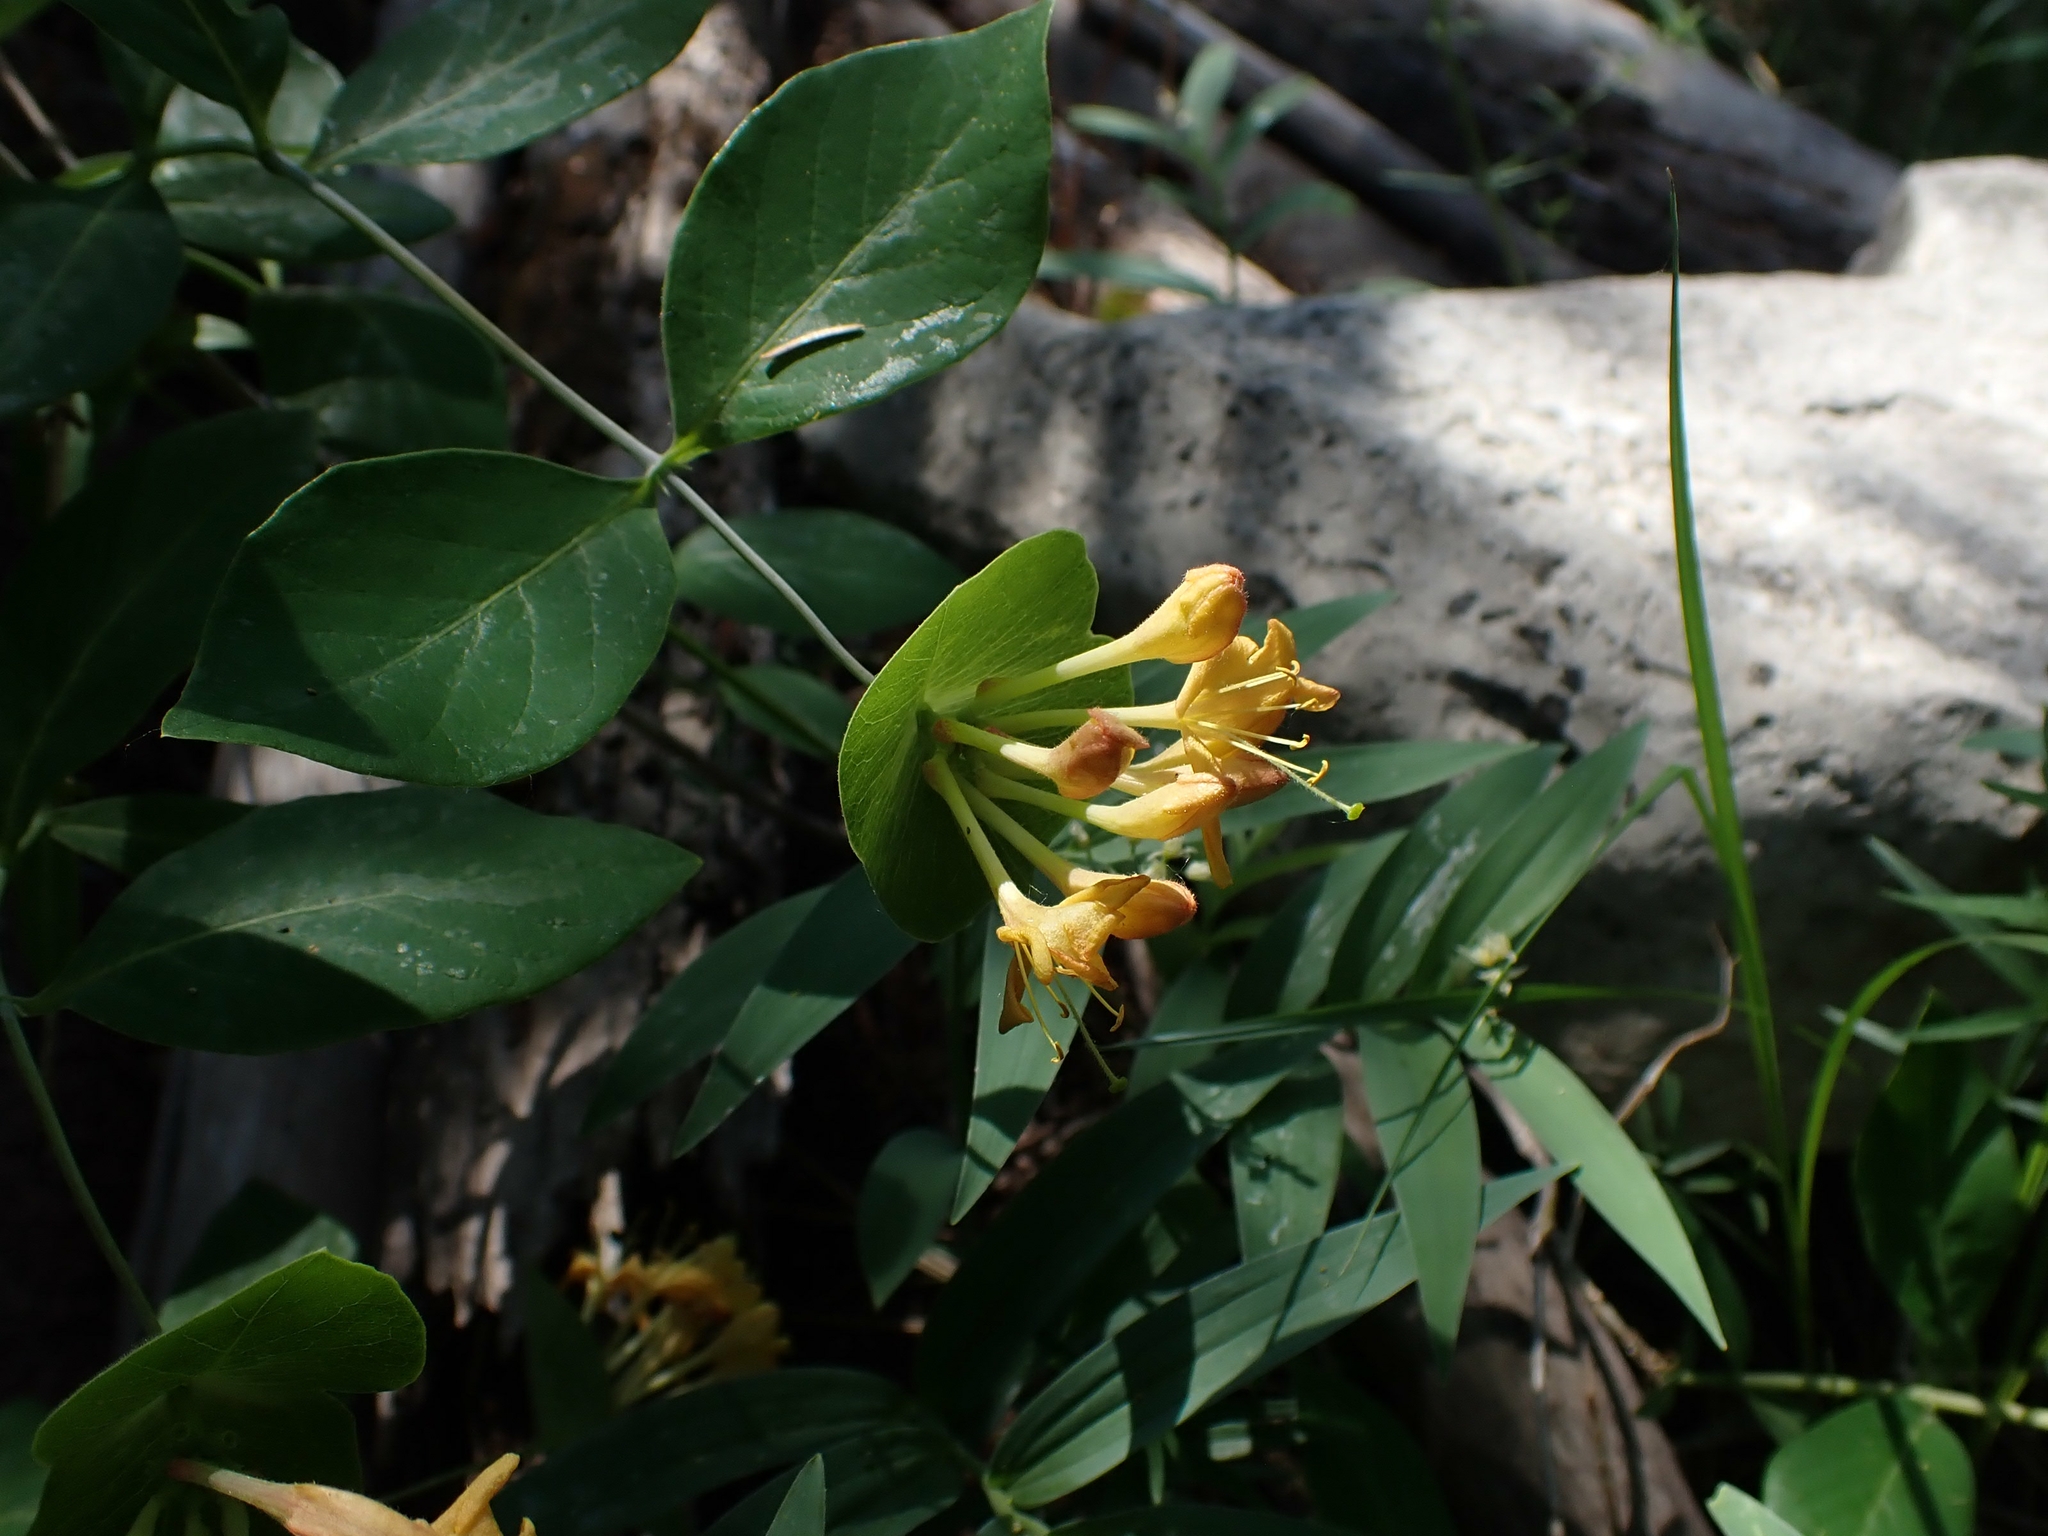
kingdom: Plantae
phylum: Tracheophyta
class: Magnoliopsida
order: Dipsacales
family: Caprifoliaceae
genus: Lonicera
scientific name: Lonicera dioica
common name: Limber honeysuckle
